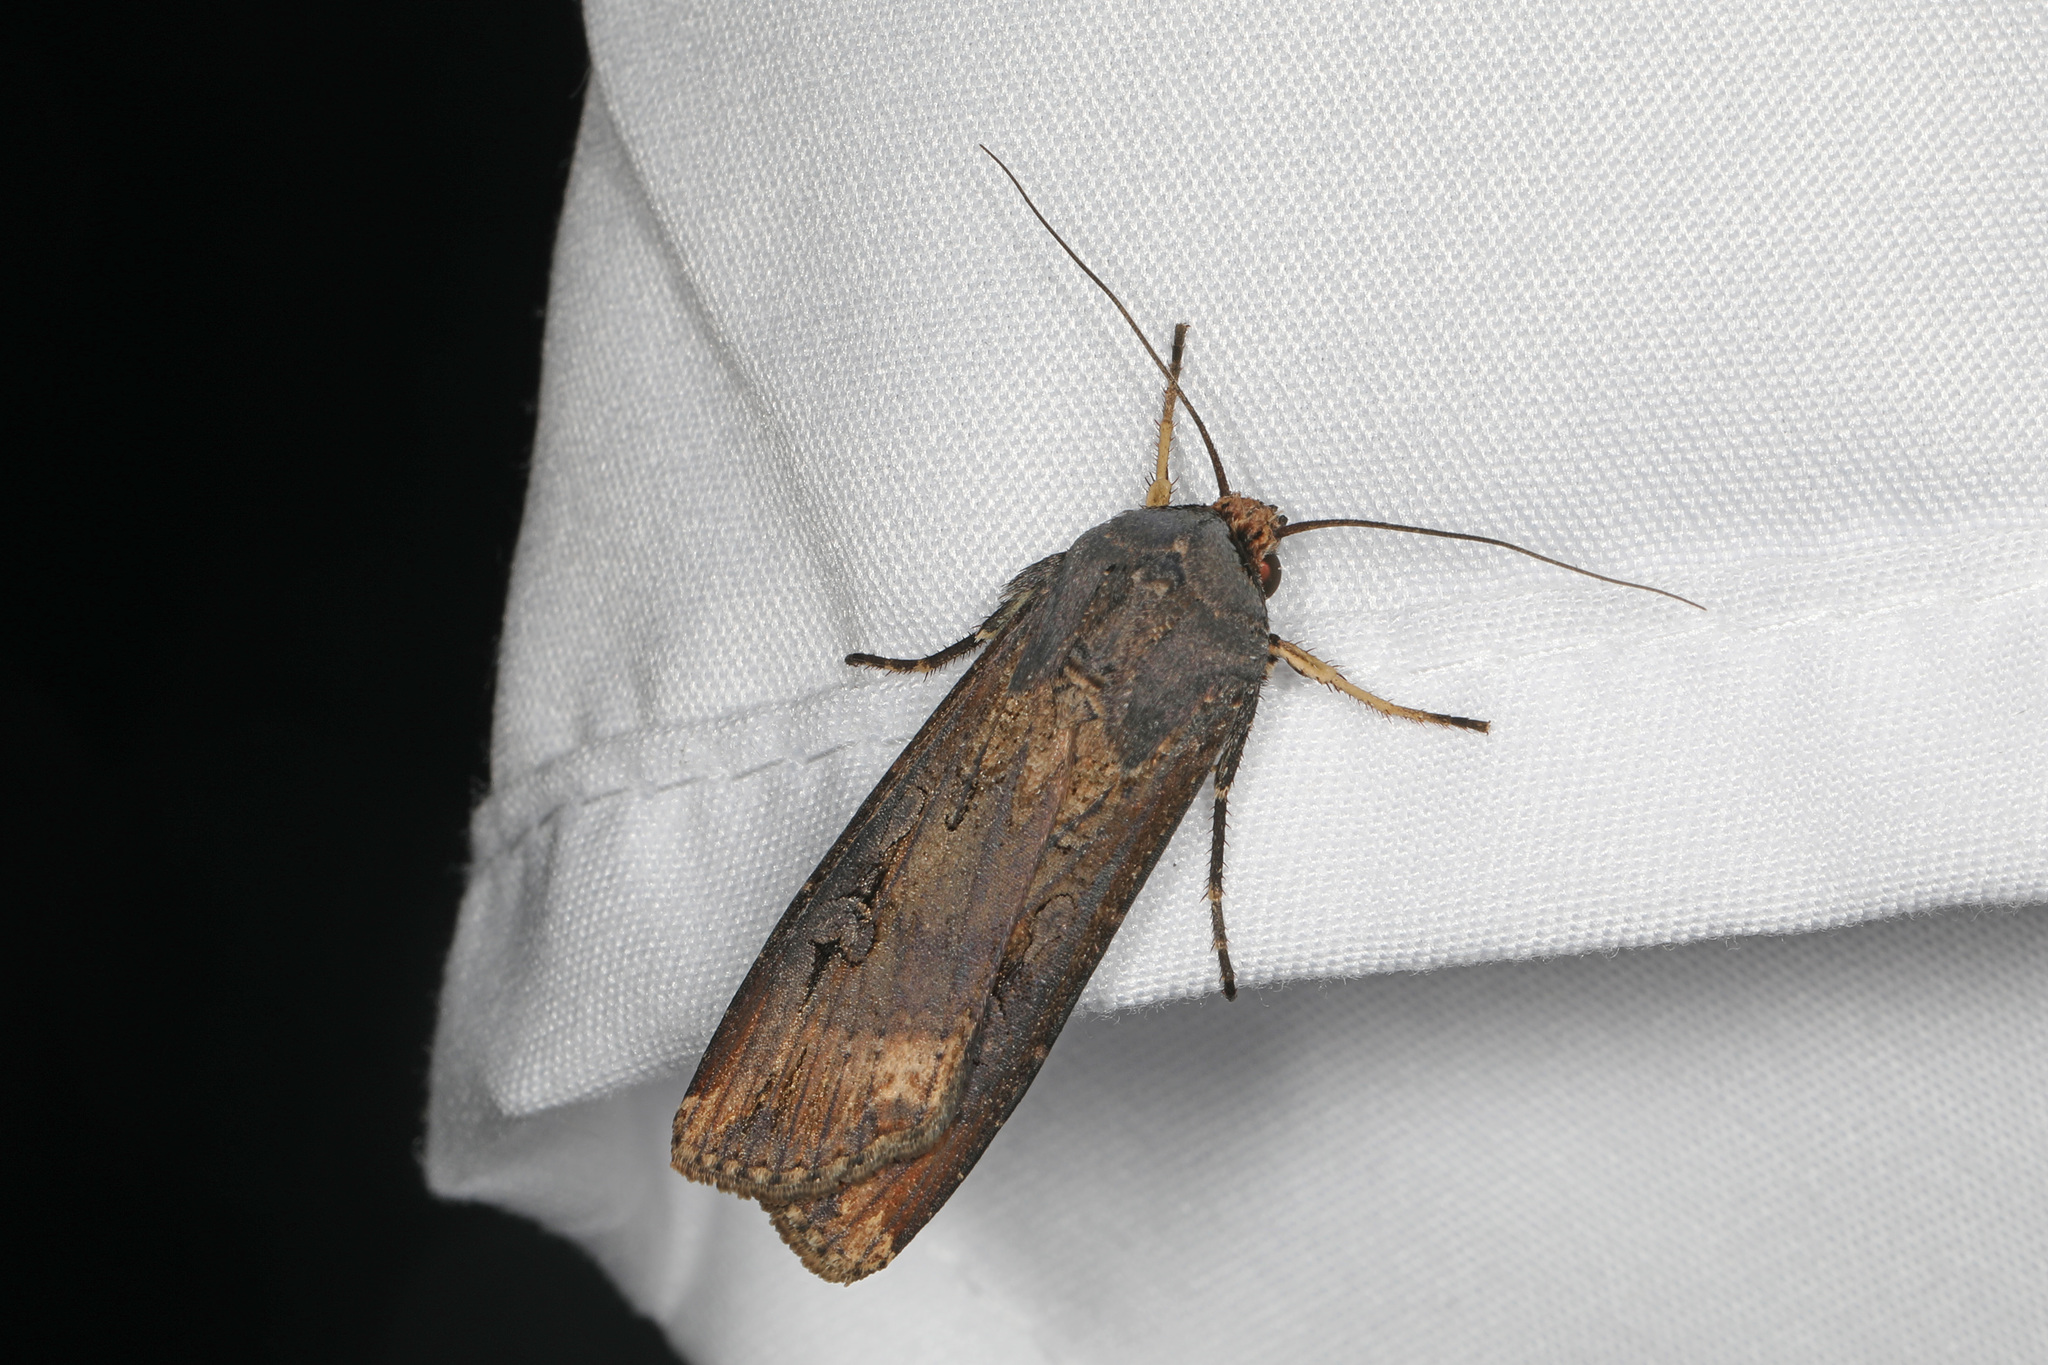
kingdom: Animalia
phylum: Arthropoda
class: Insecta
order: Lepidoptera
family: Noctuidae
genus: Agrotis
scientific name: Agrotis ipsilon
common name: Dark sword-grass
